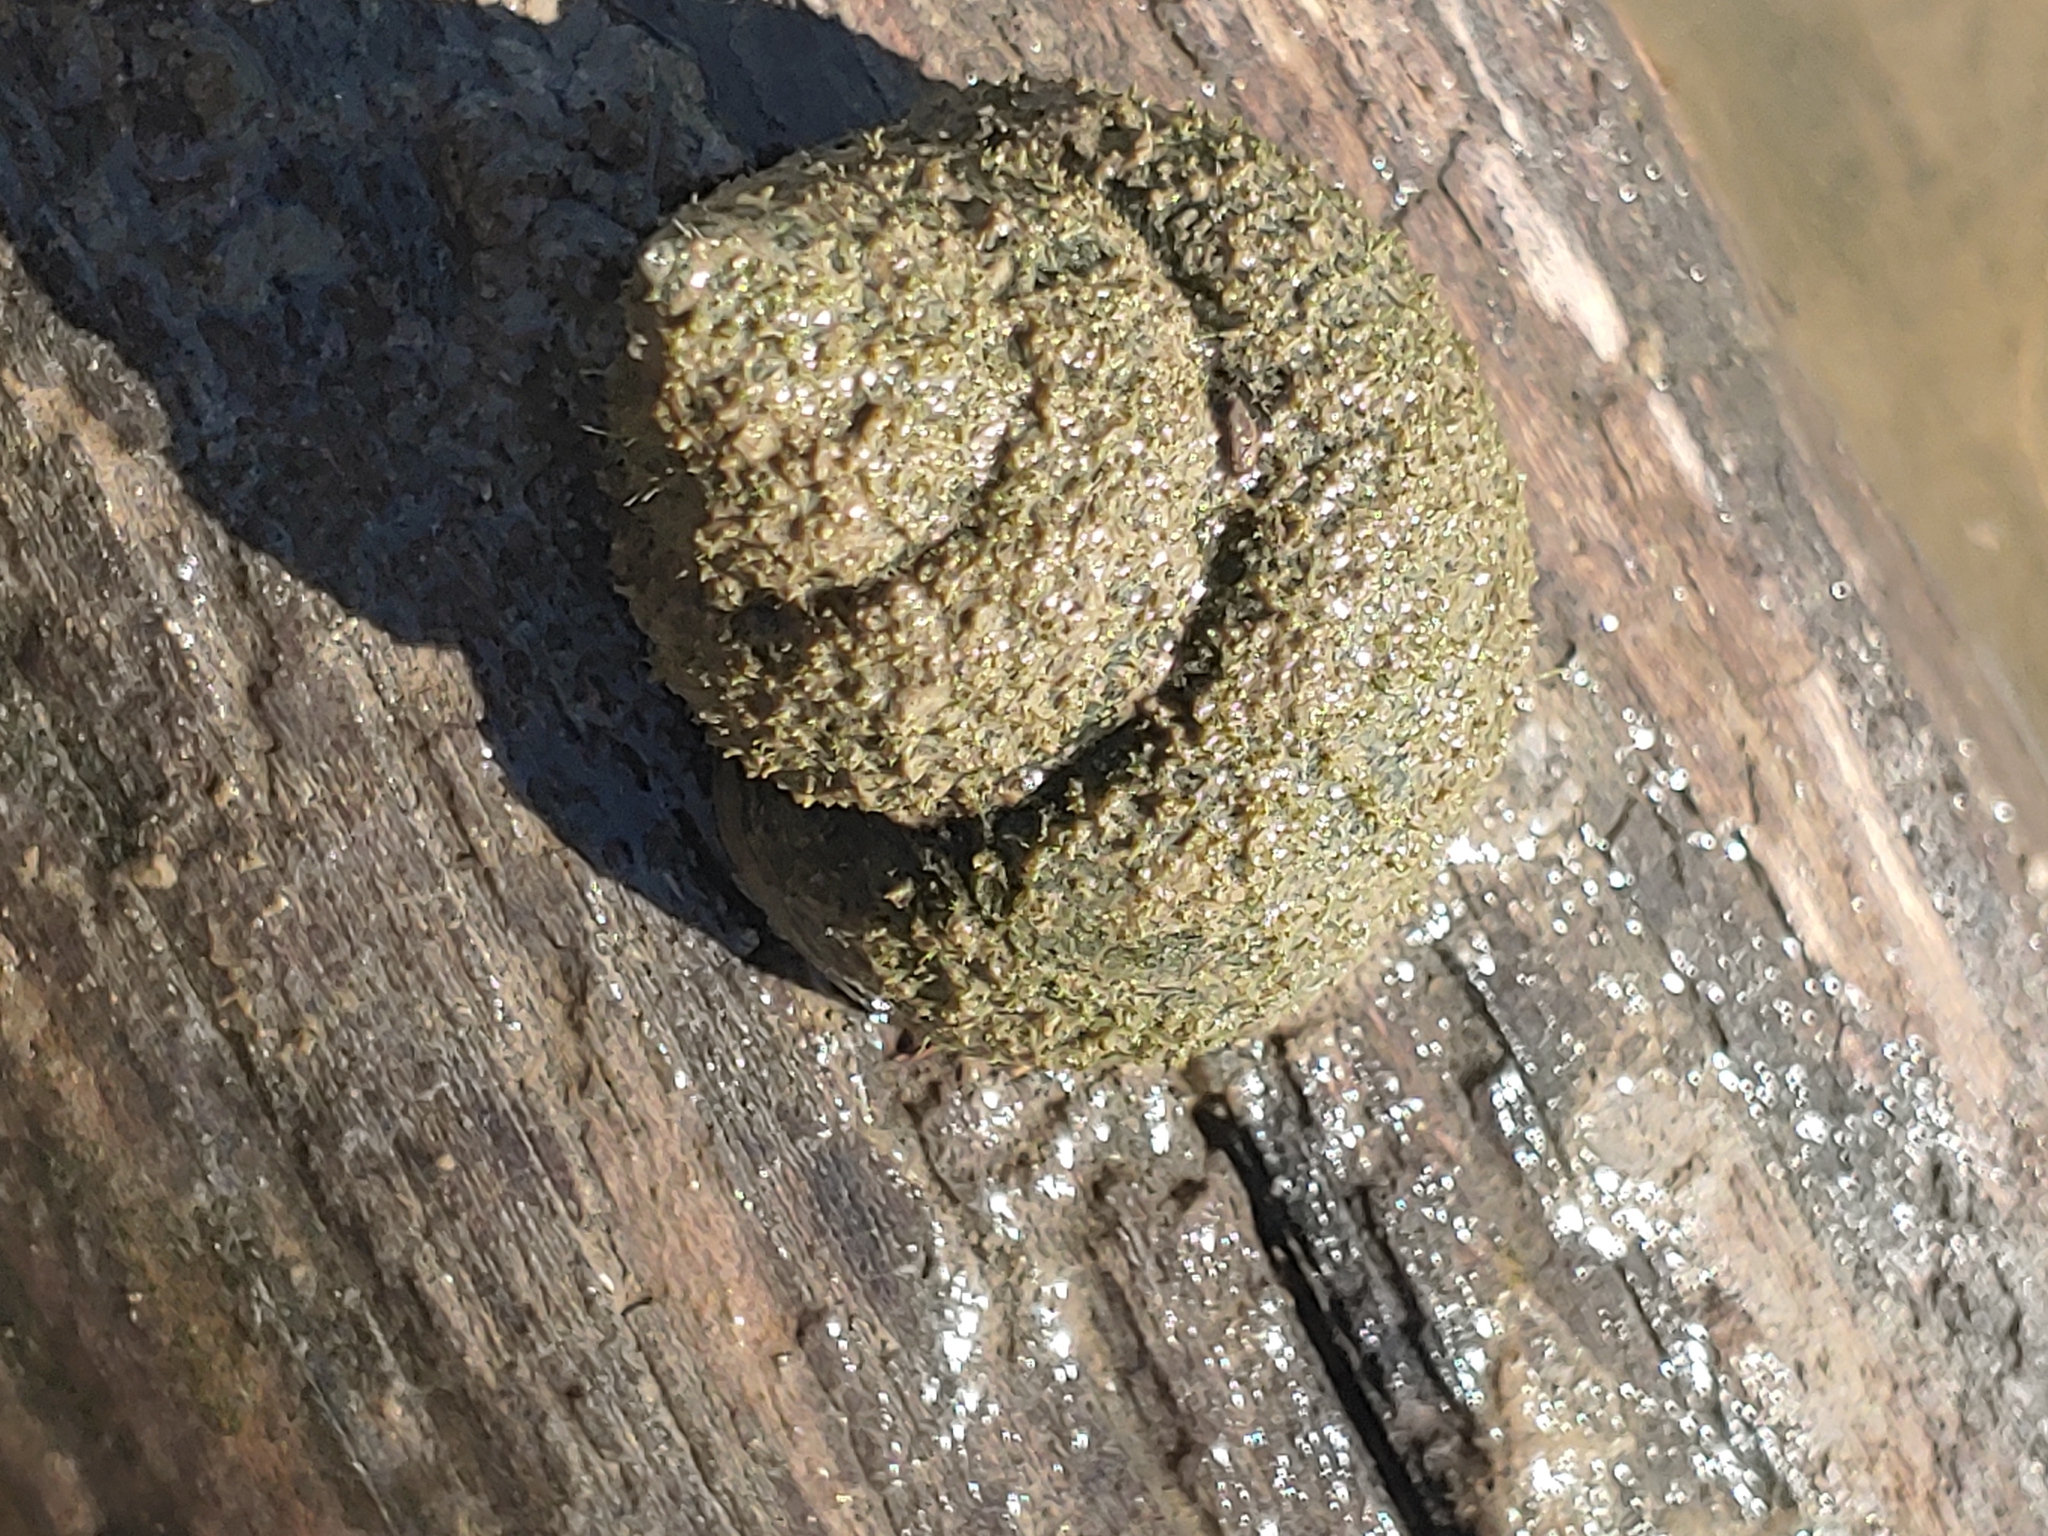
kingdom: Animalia
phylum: Mollusca
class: Gastropoda
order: Architaenioglossa
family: Viviparidae
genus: Cipangopaludina
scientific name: Cipangopaludina chinensis
